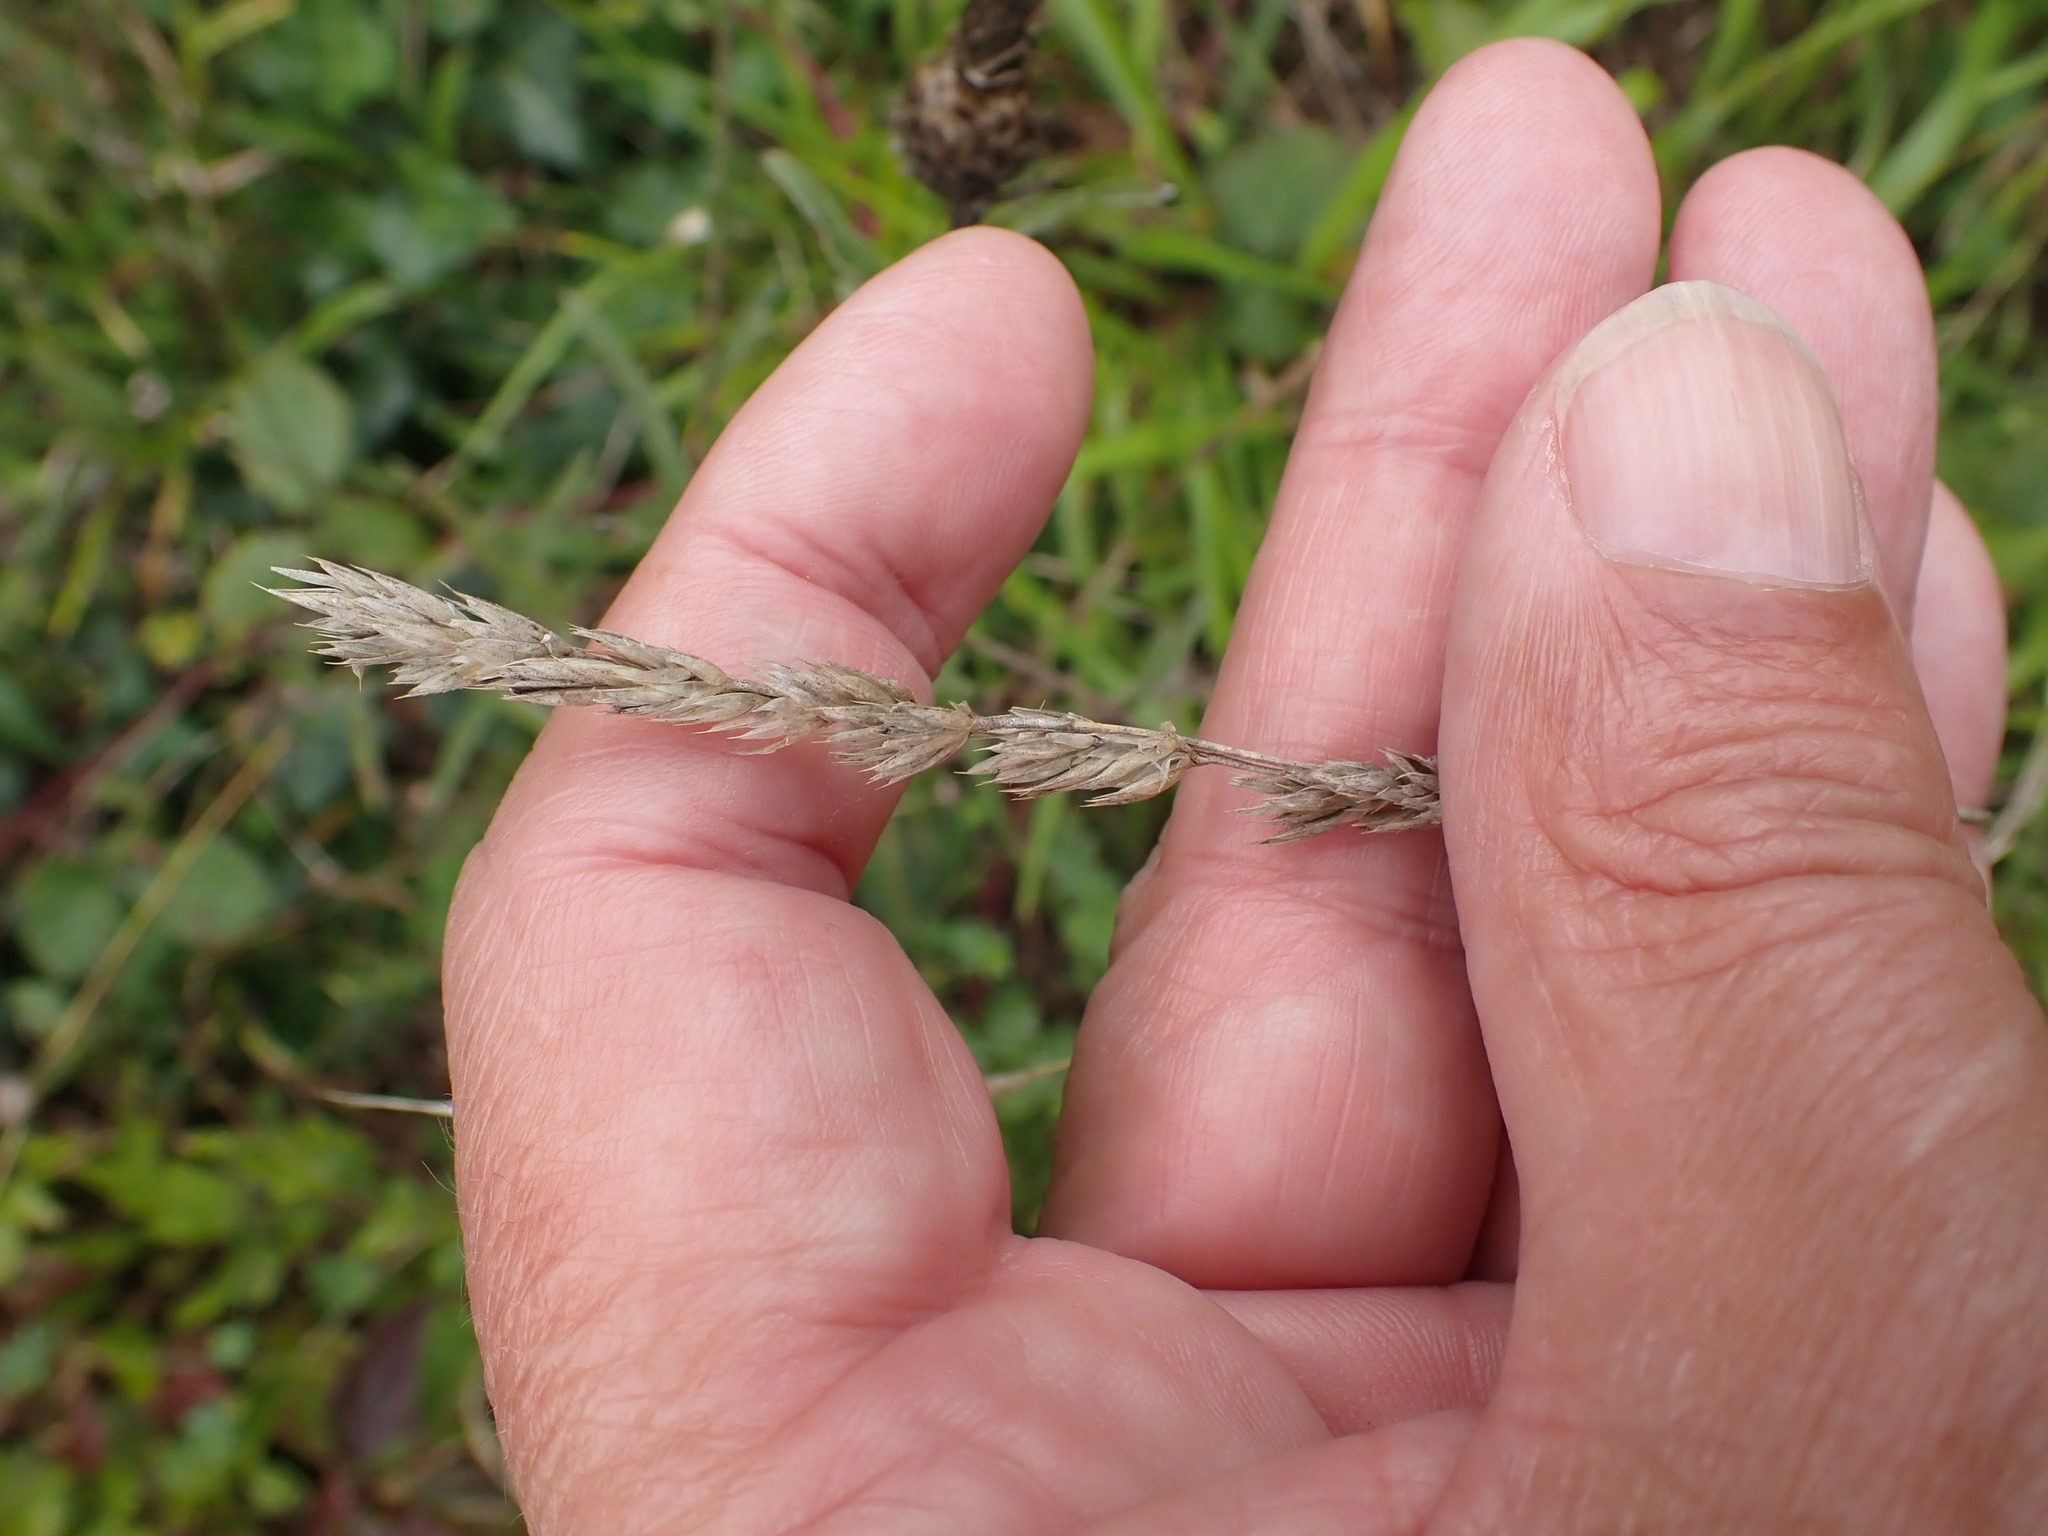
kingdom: Plantae
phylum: Tracheophyta
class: Liliopsida
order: Poales
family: Poaceae
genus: Dactylis
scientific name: Dactylis glomerata
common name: Orchardgrass
